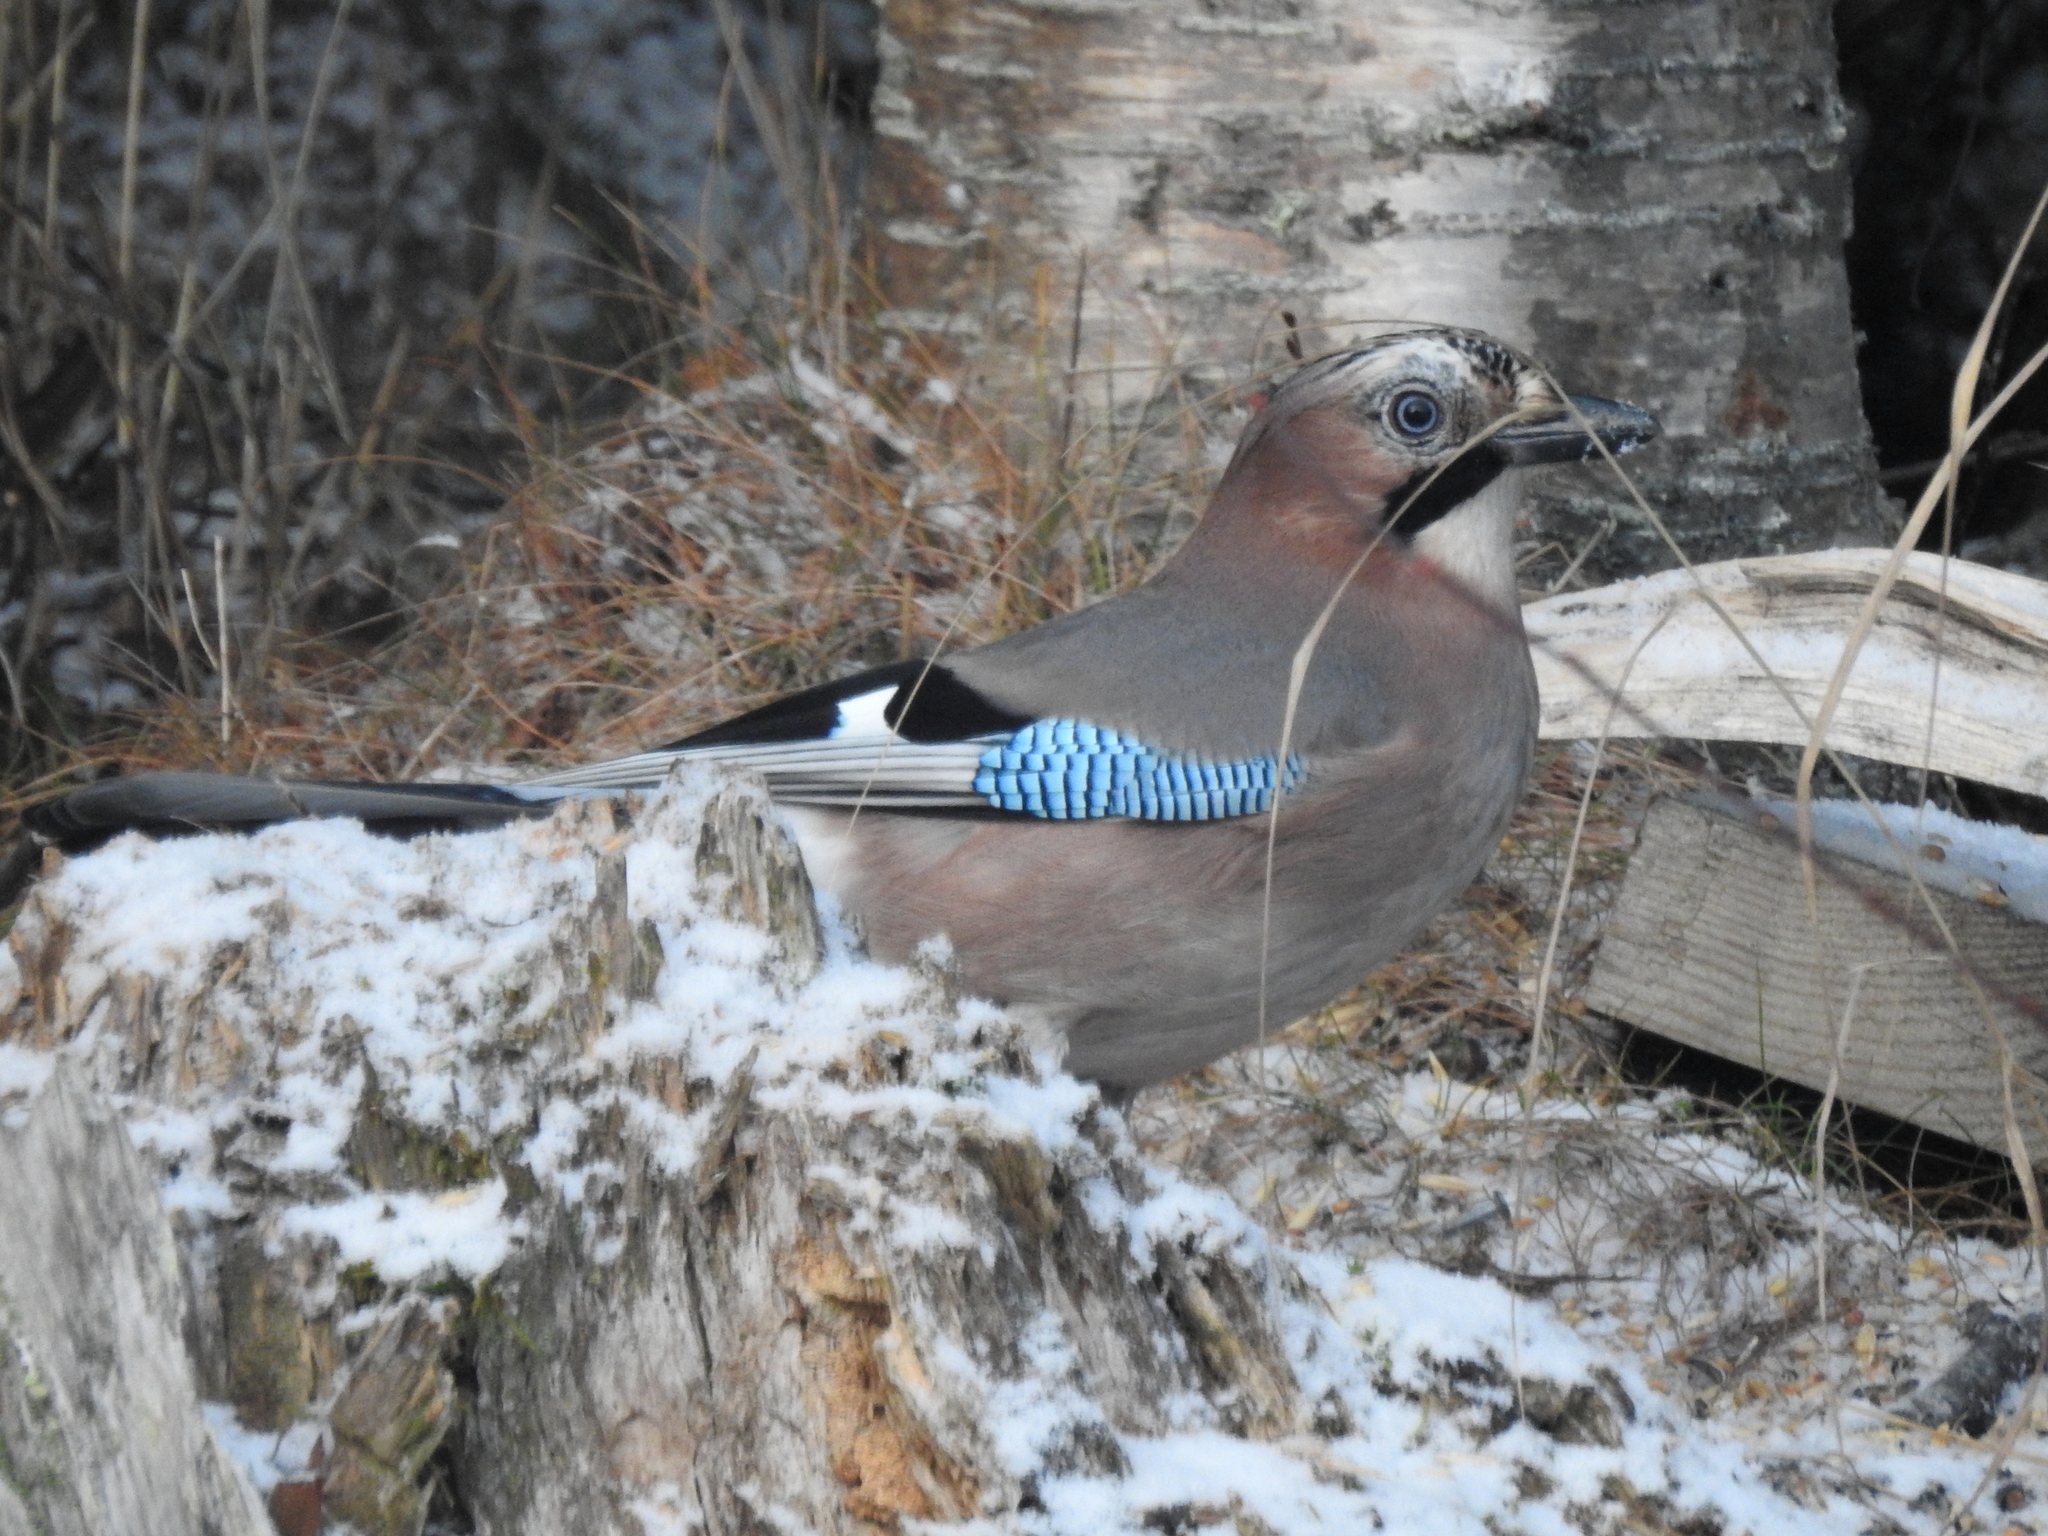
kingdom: Animalia
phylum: Chordata
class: Aves
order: Passeriformes
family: Corvidae
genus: Garrulus
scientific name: Garrulus glandarius
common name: Eurasian jay
